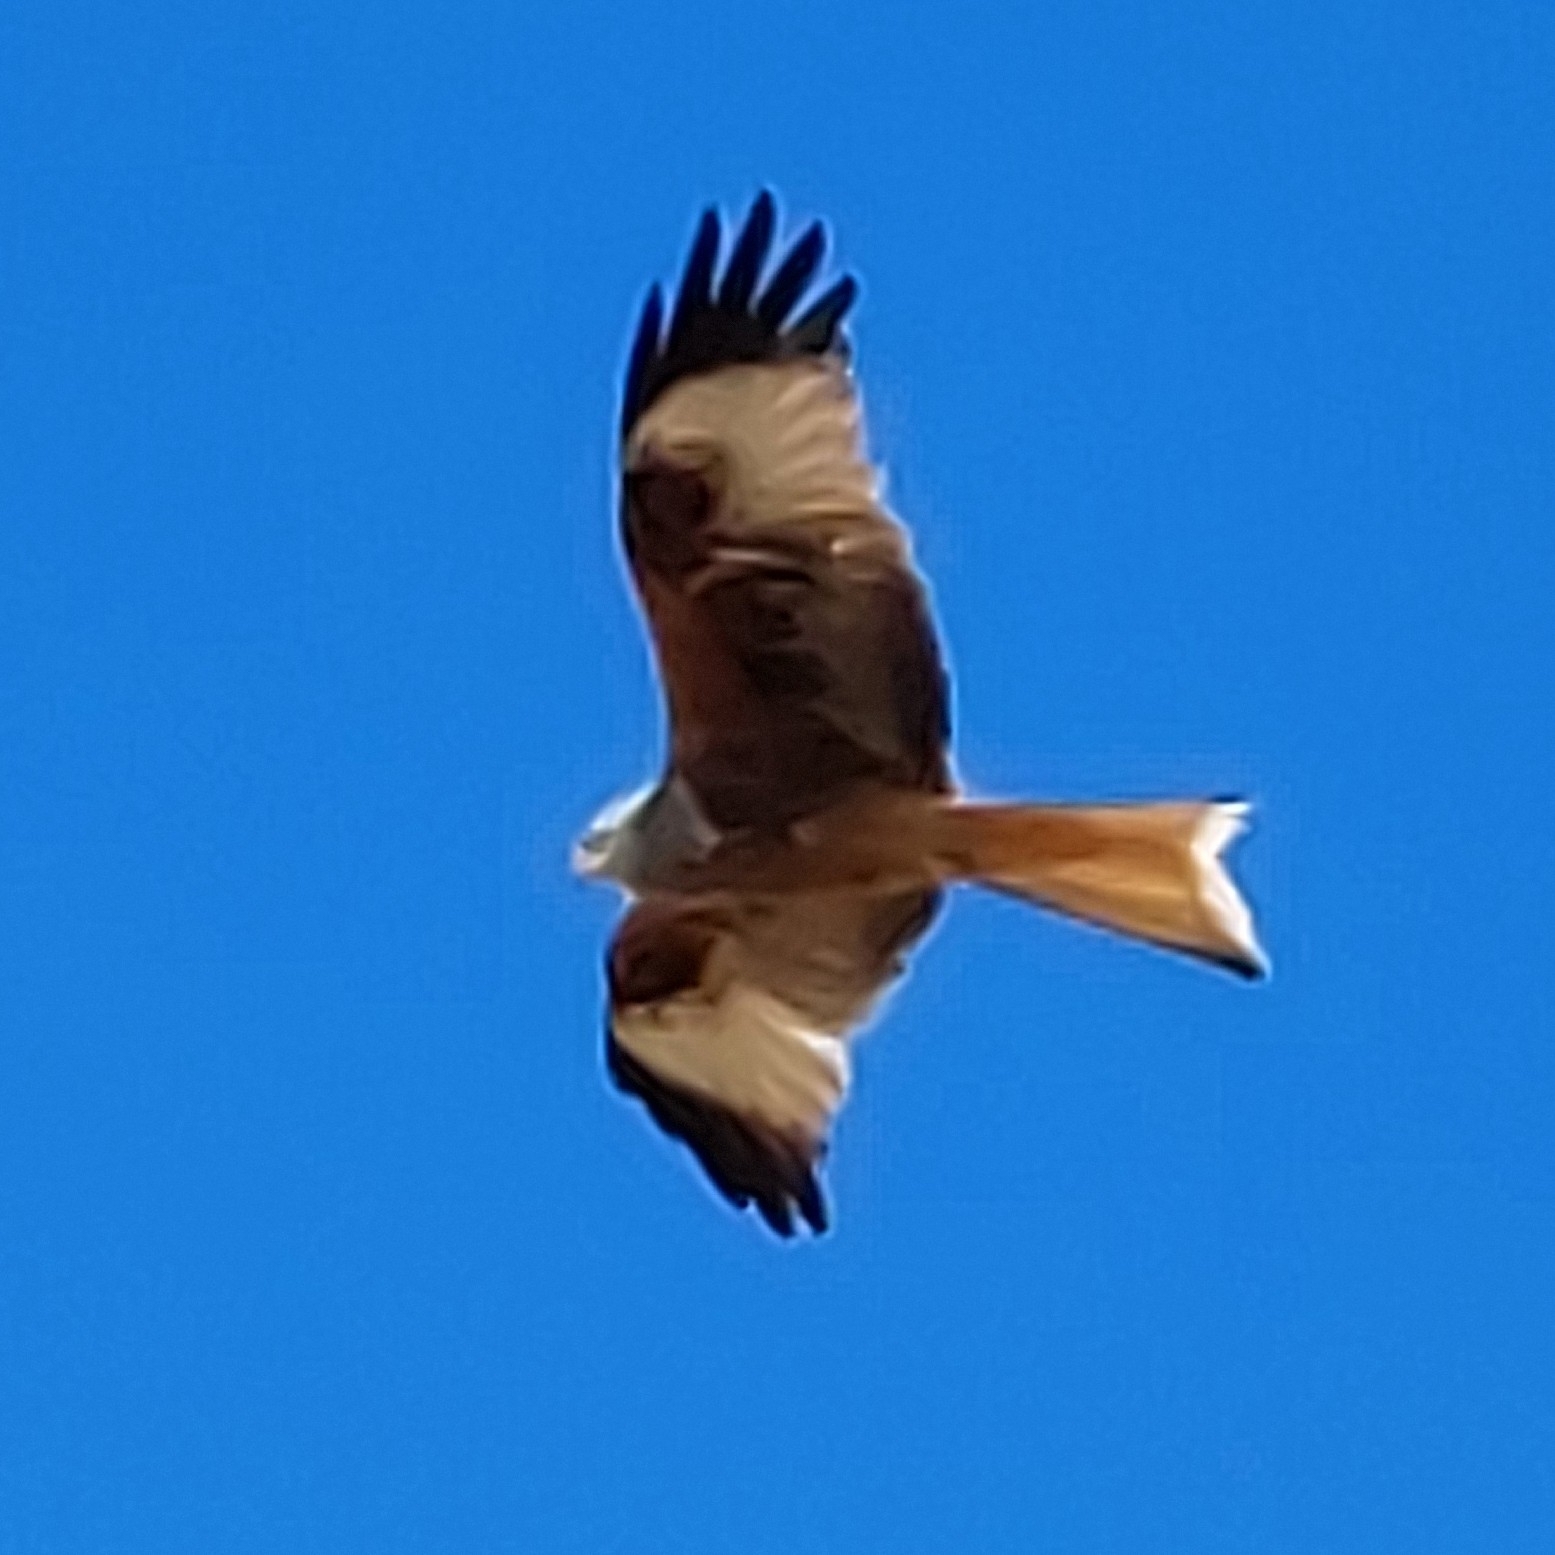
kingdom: Animalia
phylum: Chordata
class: Aves
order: Accipitriformes
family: Accipitridae
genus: Milvus
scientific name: Milvus milvus
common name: Red kite
